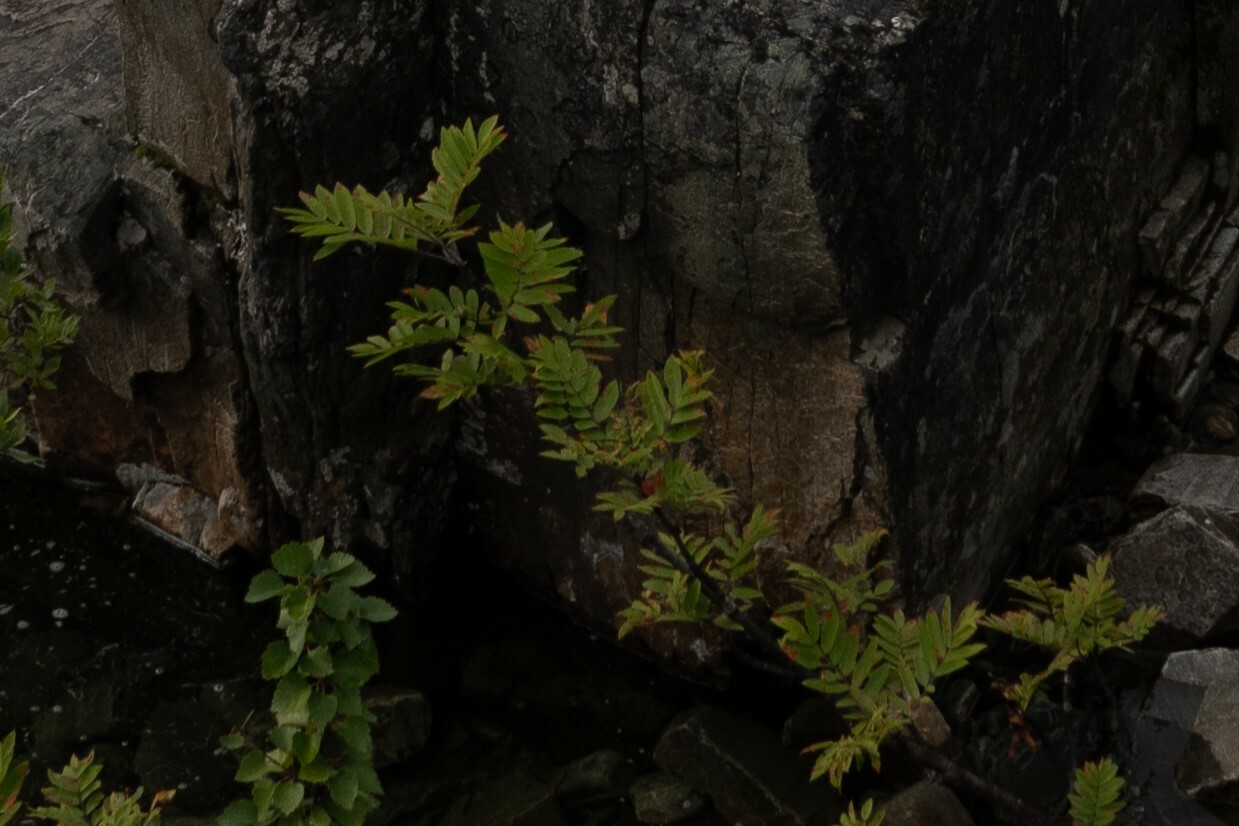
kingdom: Plantae
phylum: Tracheophyta
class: Magnoliopsida
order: Rosales
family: Rosaceae
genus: Sorbus
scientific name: Sorbus aucuparia
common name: Rowan
